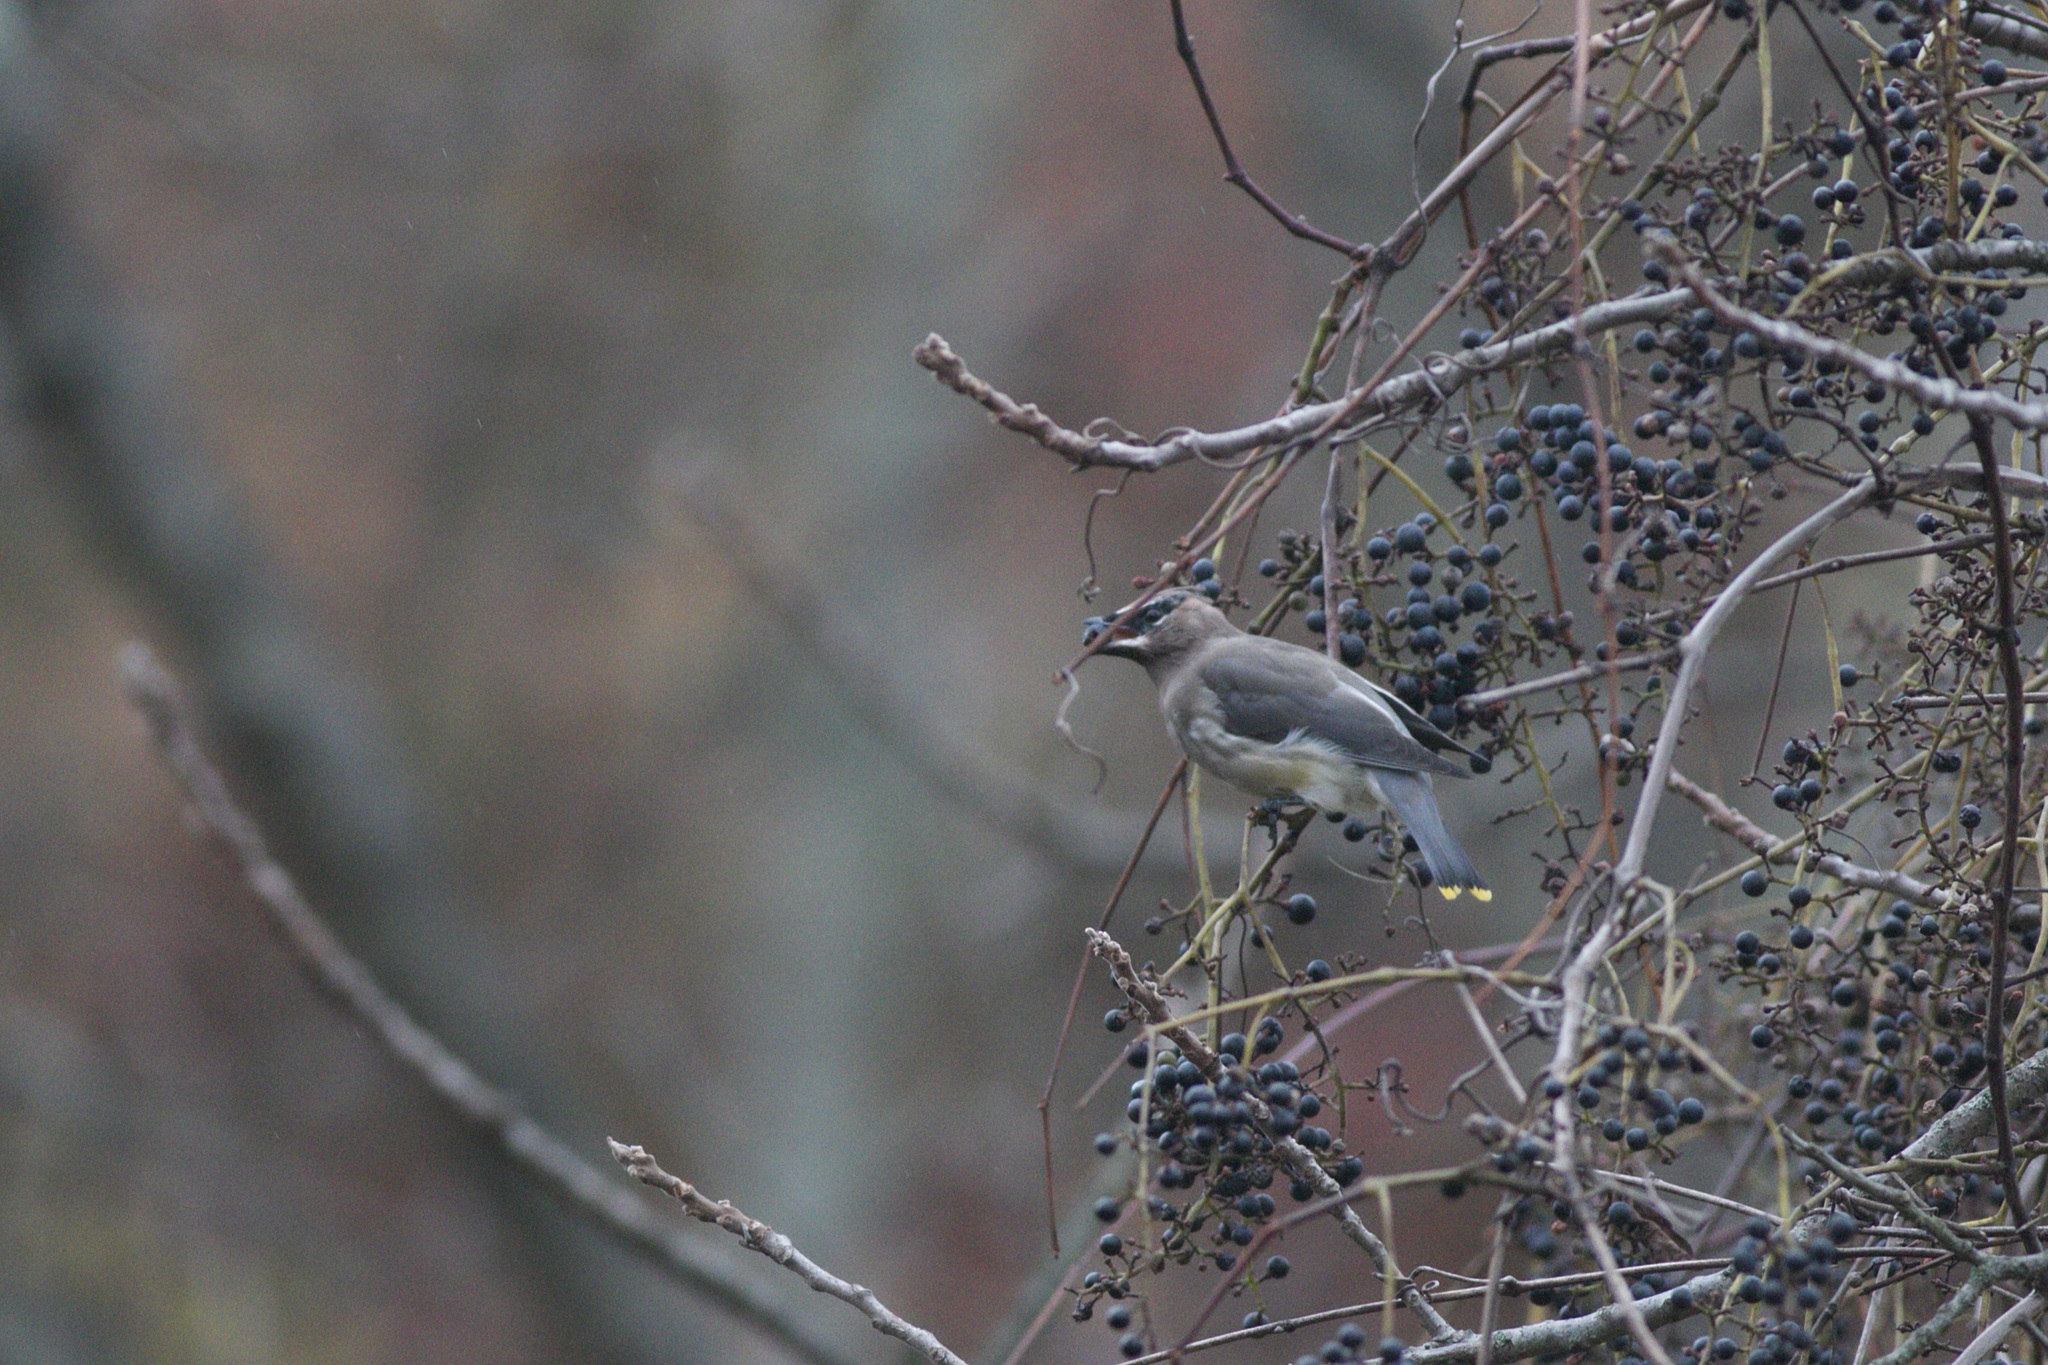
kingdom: Animalia
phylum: Chordata
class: Aves
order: Passeriformes
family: Bombycillidae
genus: Bombycilla
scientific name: Bombycilla cedrorum
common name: Cedar waxwing
